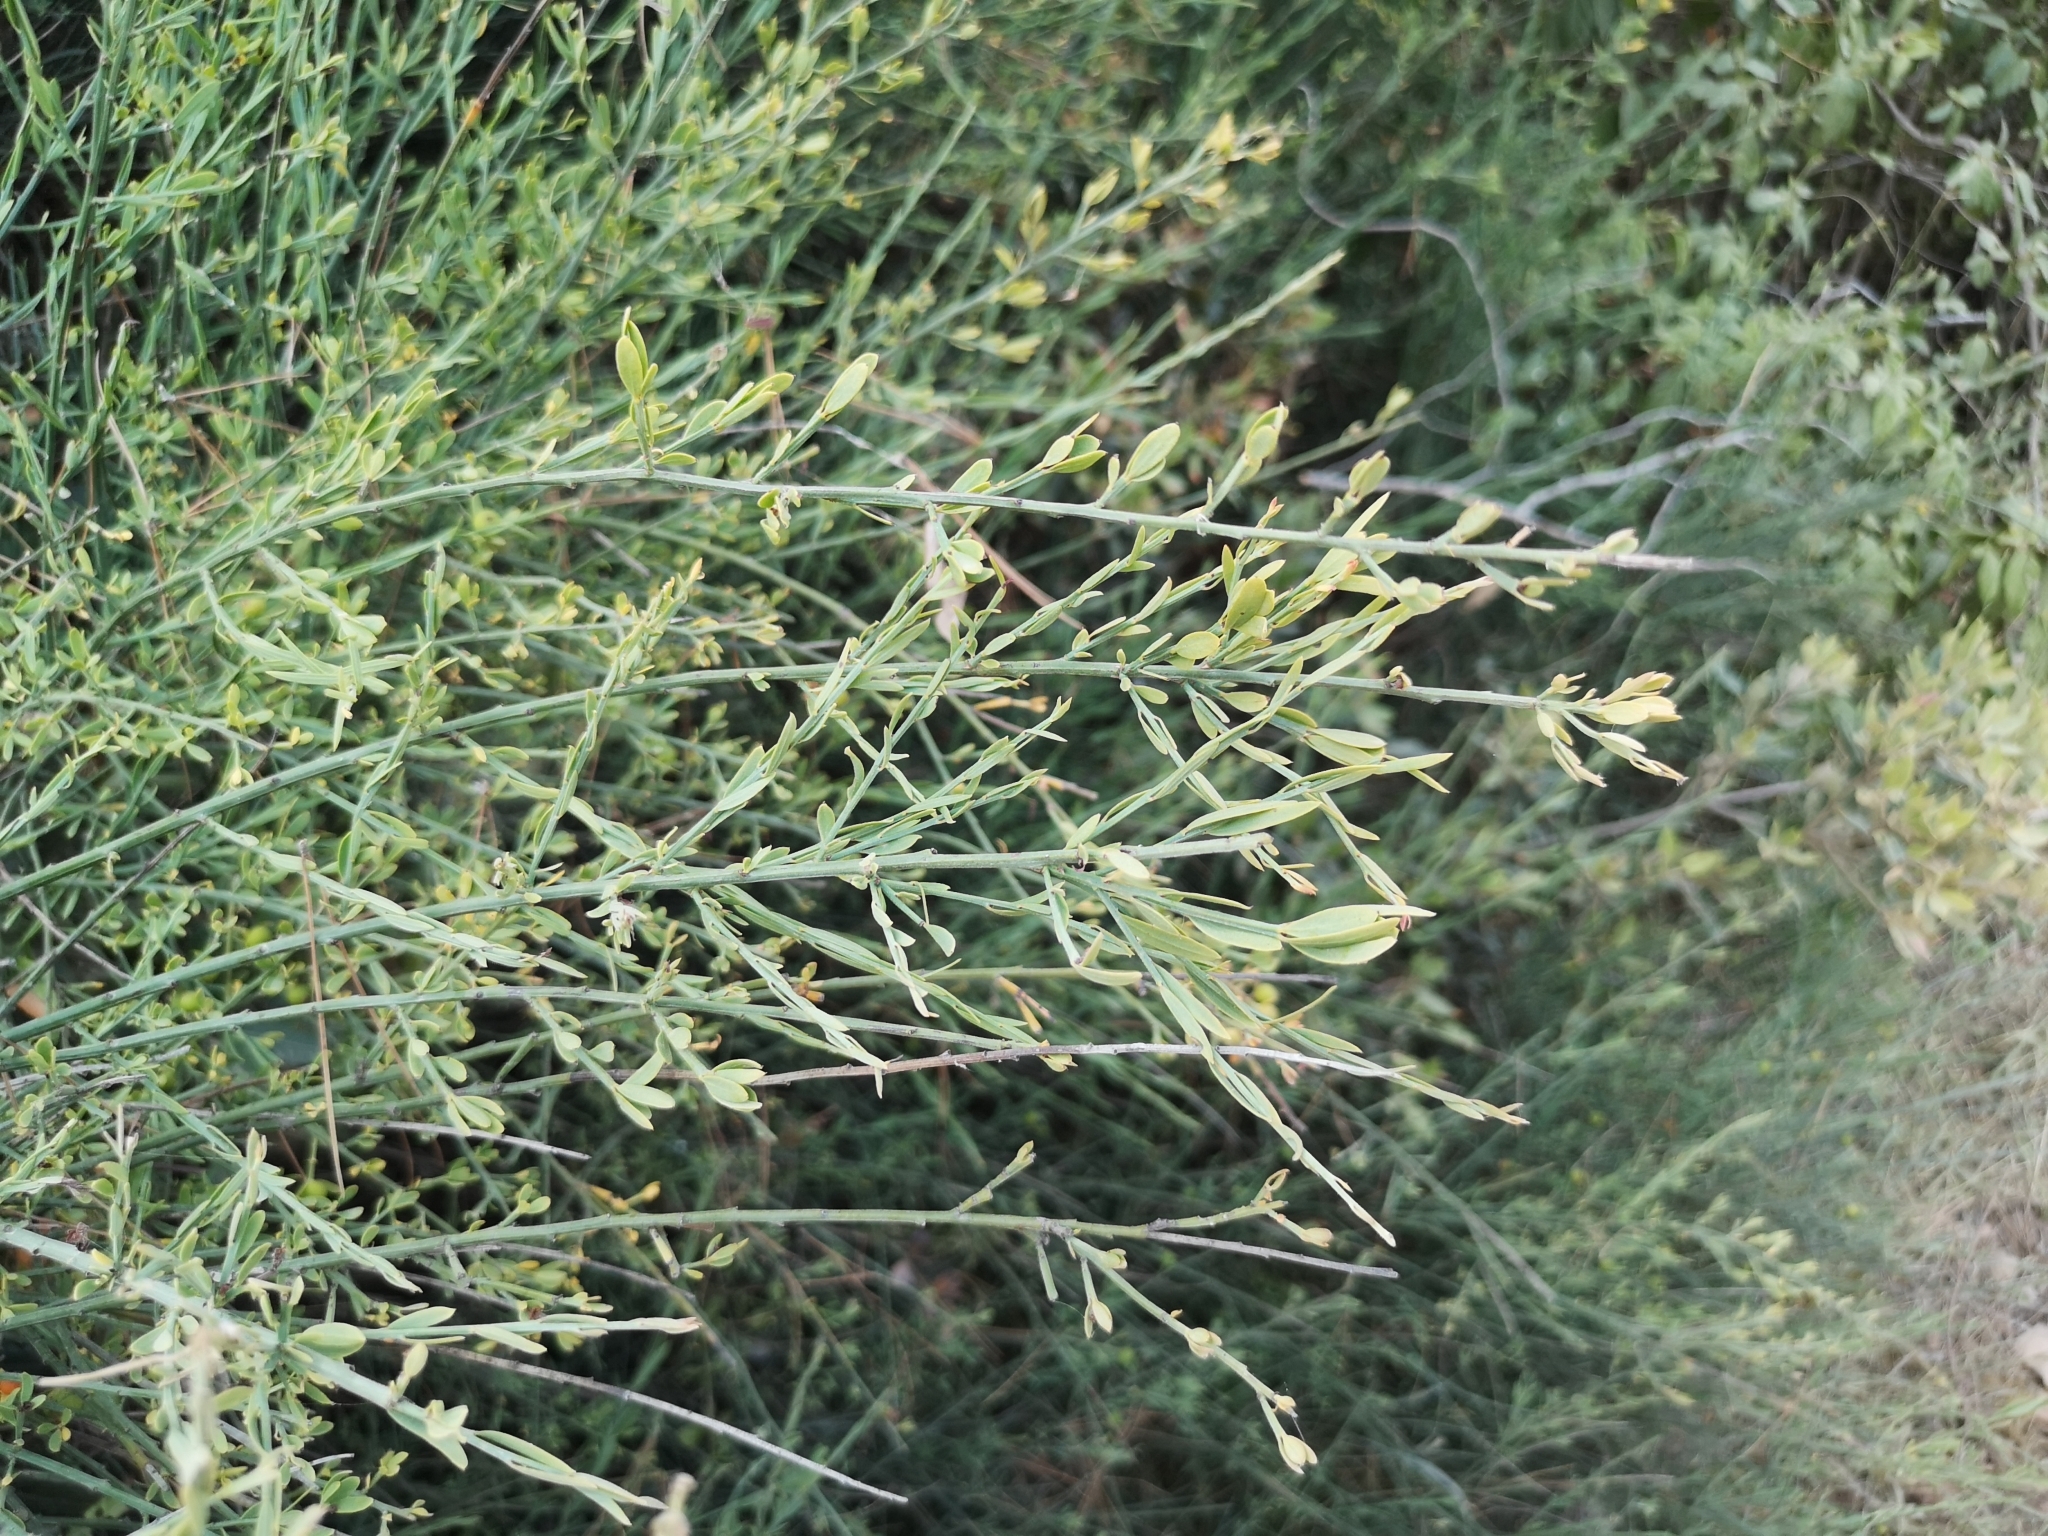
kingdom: Plantae
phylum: Tracheophyta
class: Magnoliopsida
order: Santalales
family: Santalaceae
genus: Osyris
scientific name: Osyris alba
